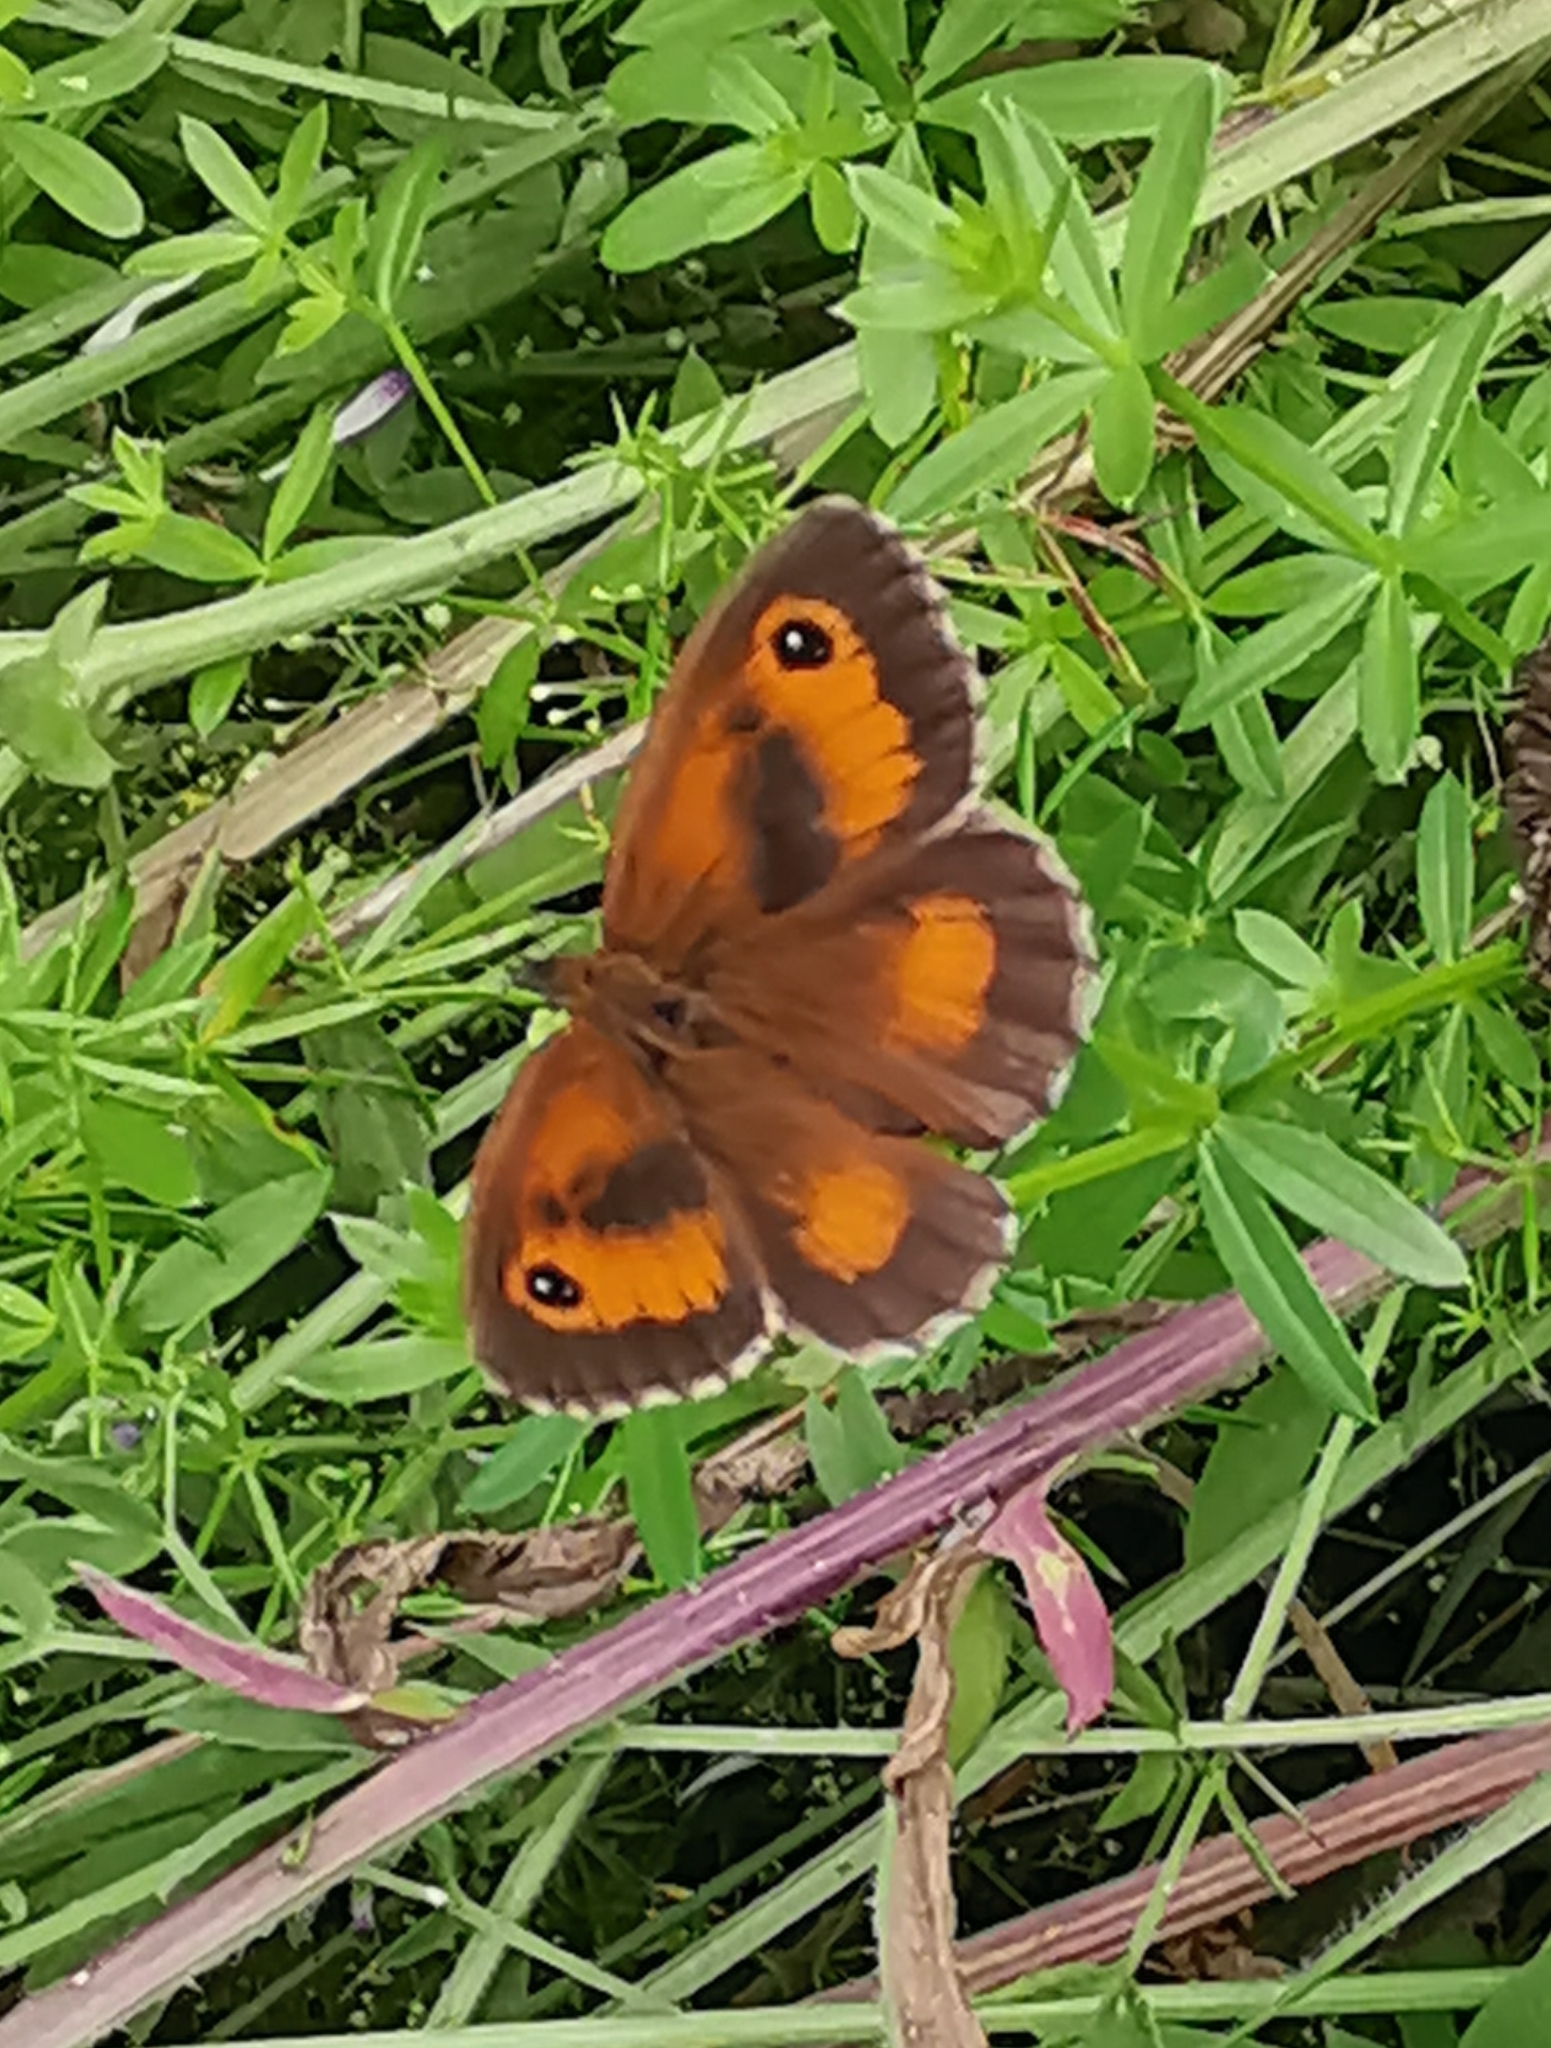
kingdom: Animalia
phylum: Arthropoda
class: Insecta
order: Lepidoptera
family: Nymphalidae
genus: Pyronia
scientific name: Pyronia tithonus
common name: Gatekeeper
